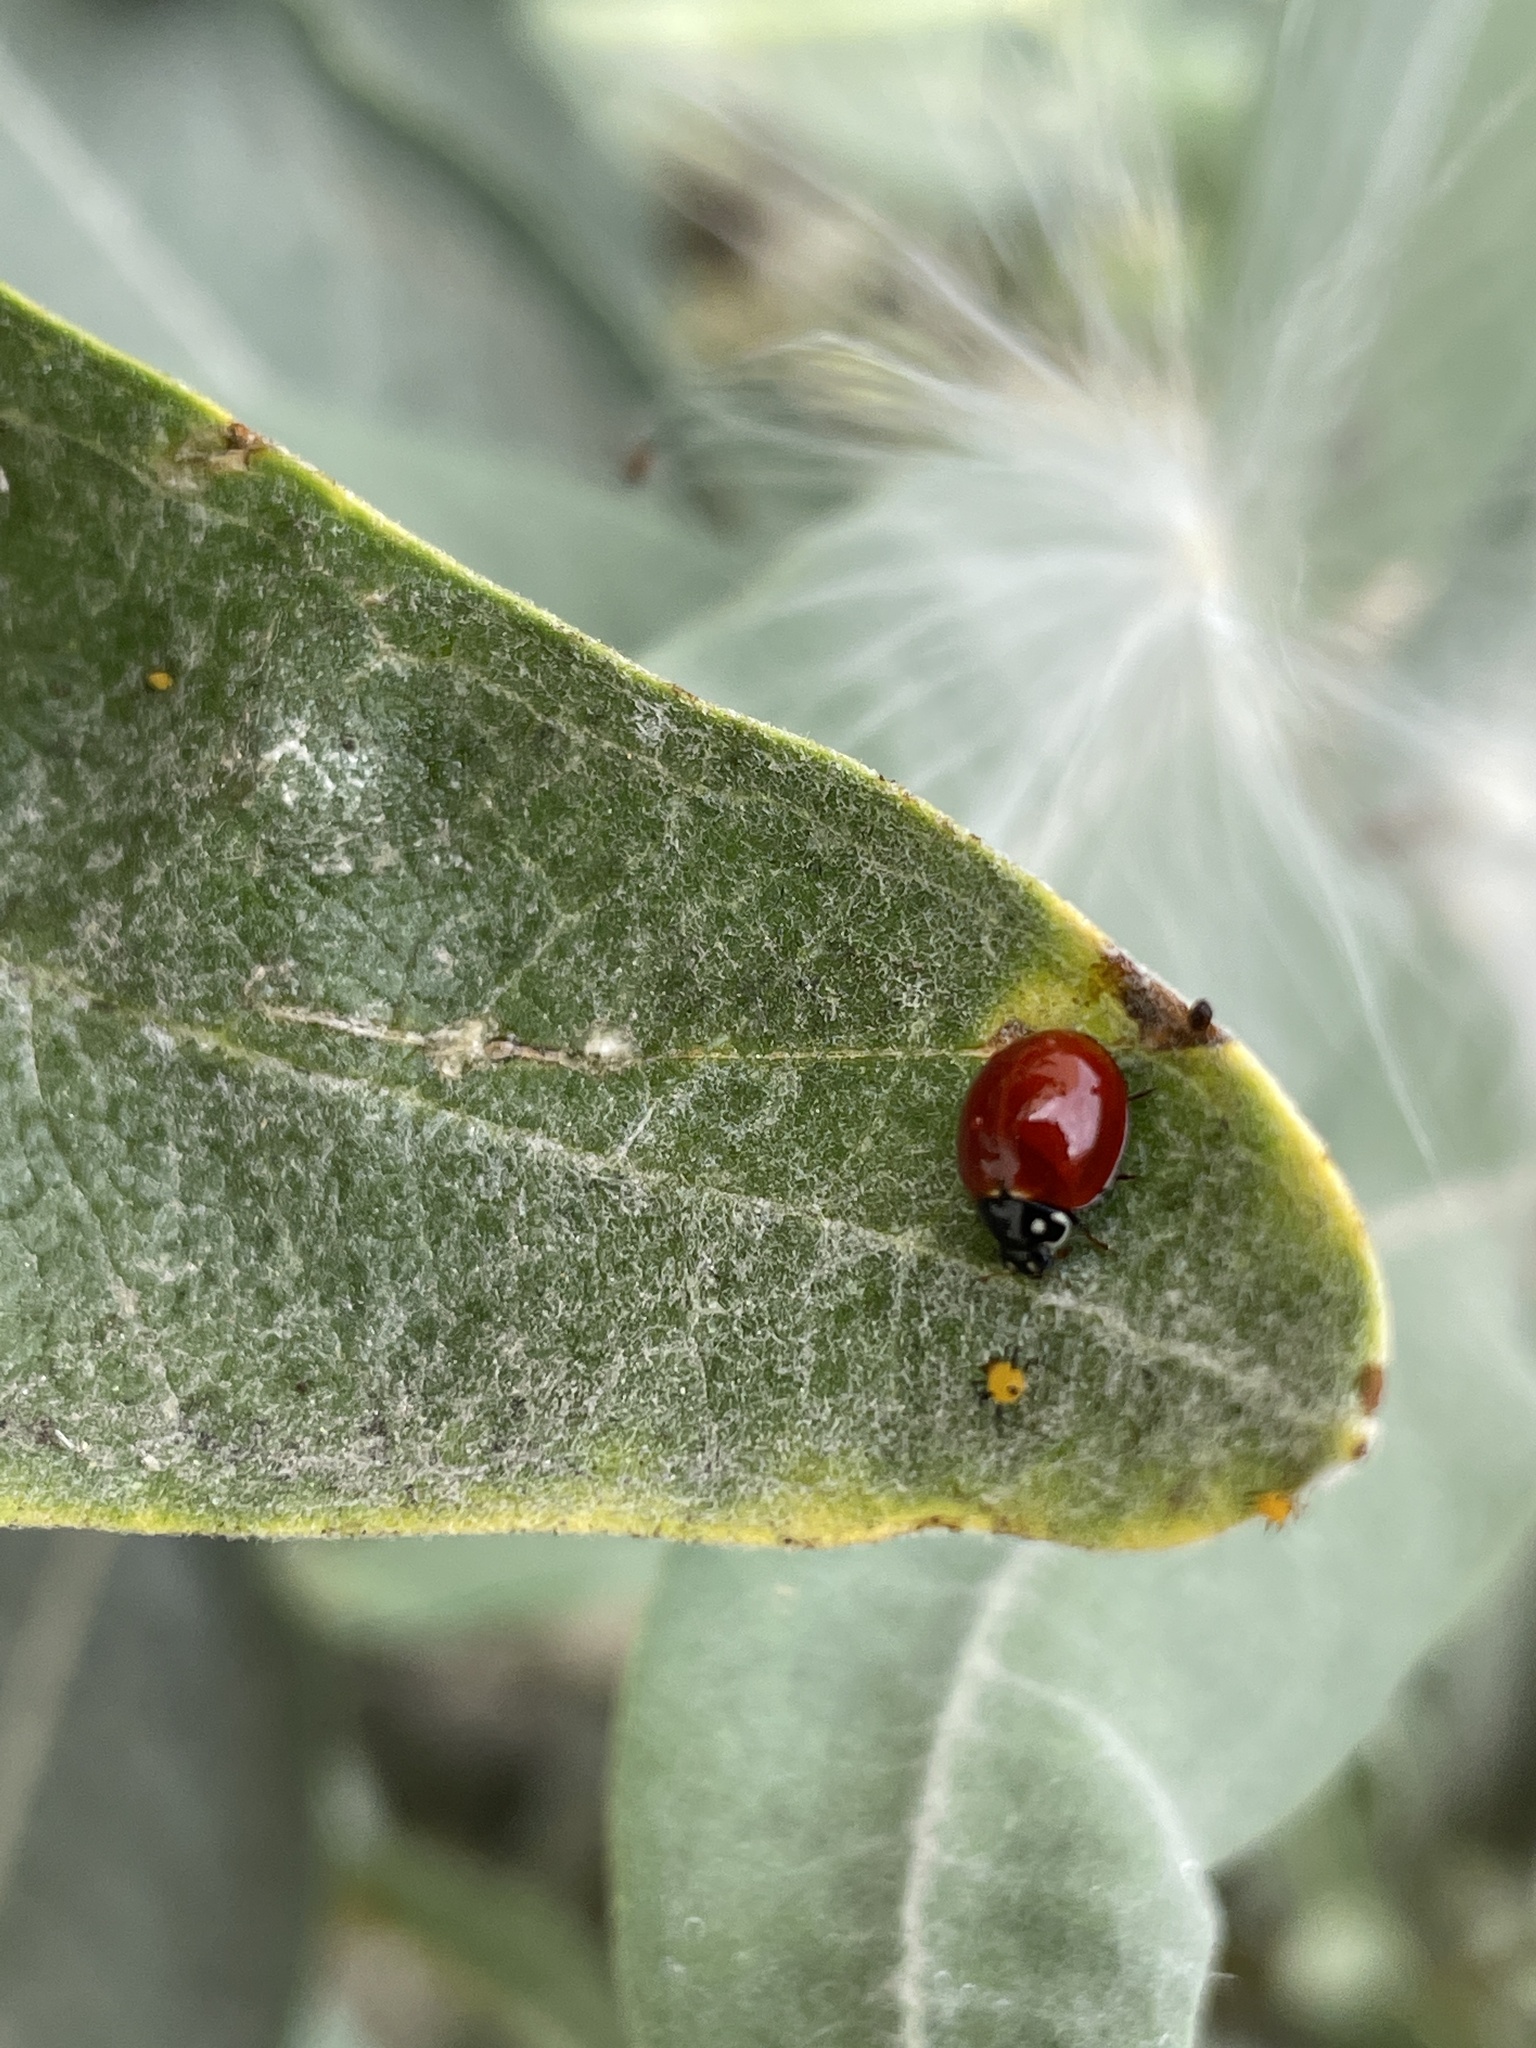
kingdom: Animalia
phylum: Arthropoda
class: Insecta
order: Coleoptera
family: Coccinellidae
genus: Cycloneda
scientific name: Cycloneda sanguinea
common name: Ladybird beetle
